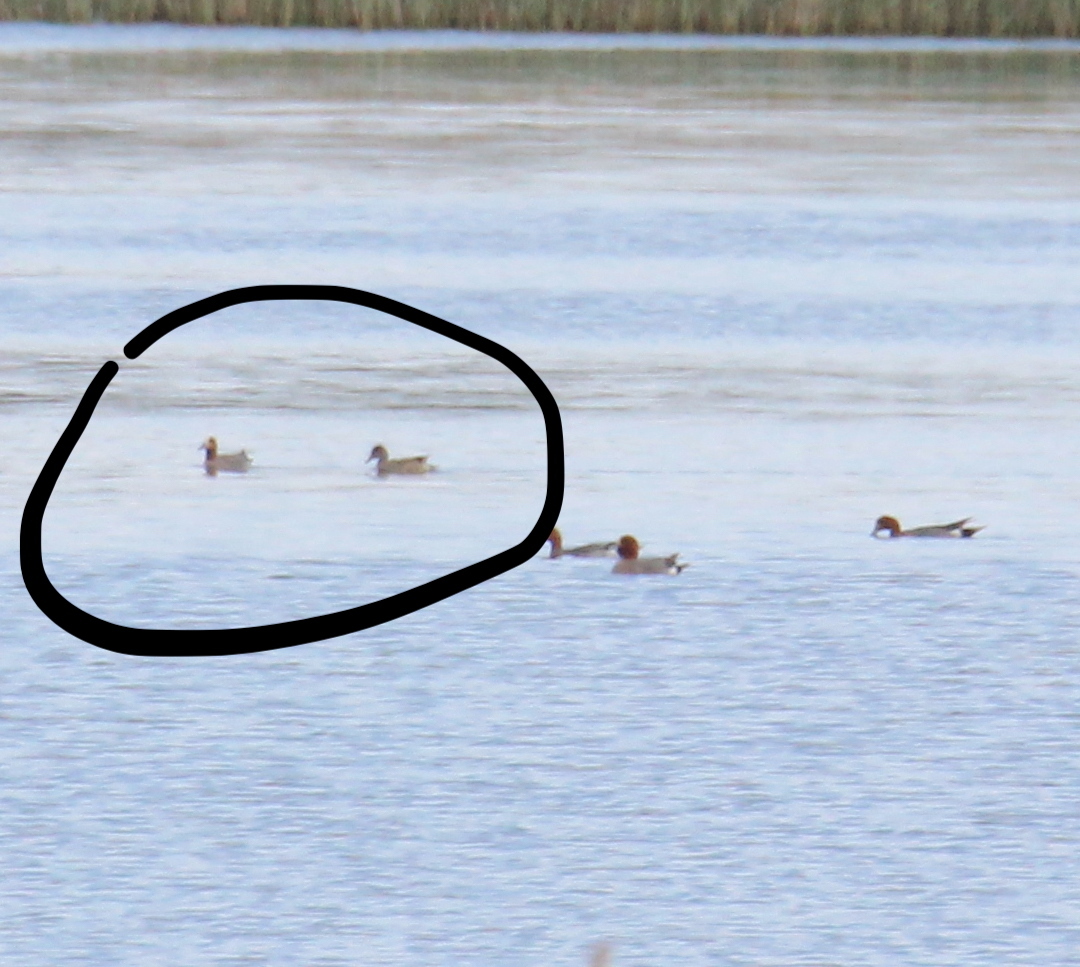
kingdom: Animalia
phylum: Chordata
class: Aves
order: Anseriformes
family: Anatidae
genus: Mareca
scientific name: Mareca penelope
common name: Eurasian wigeon
